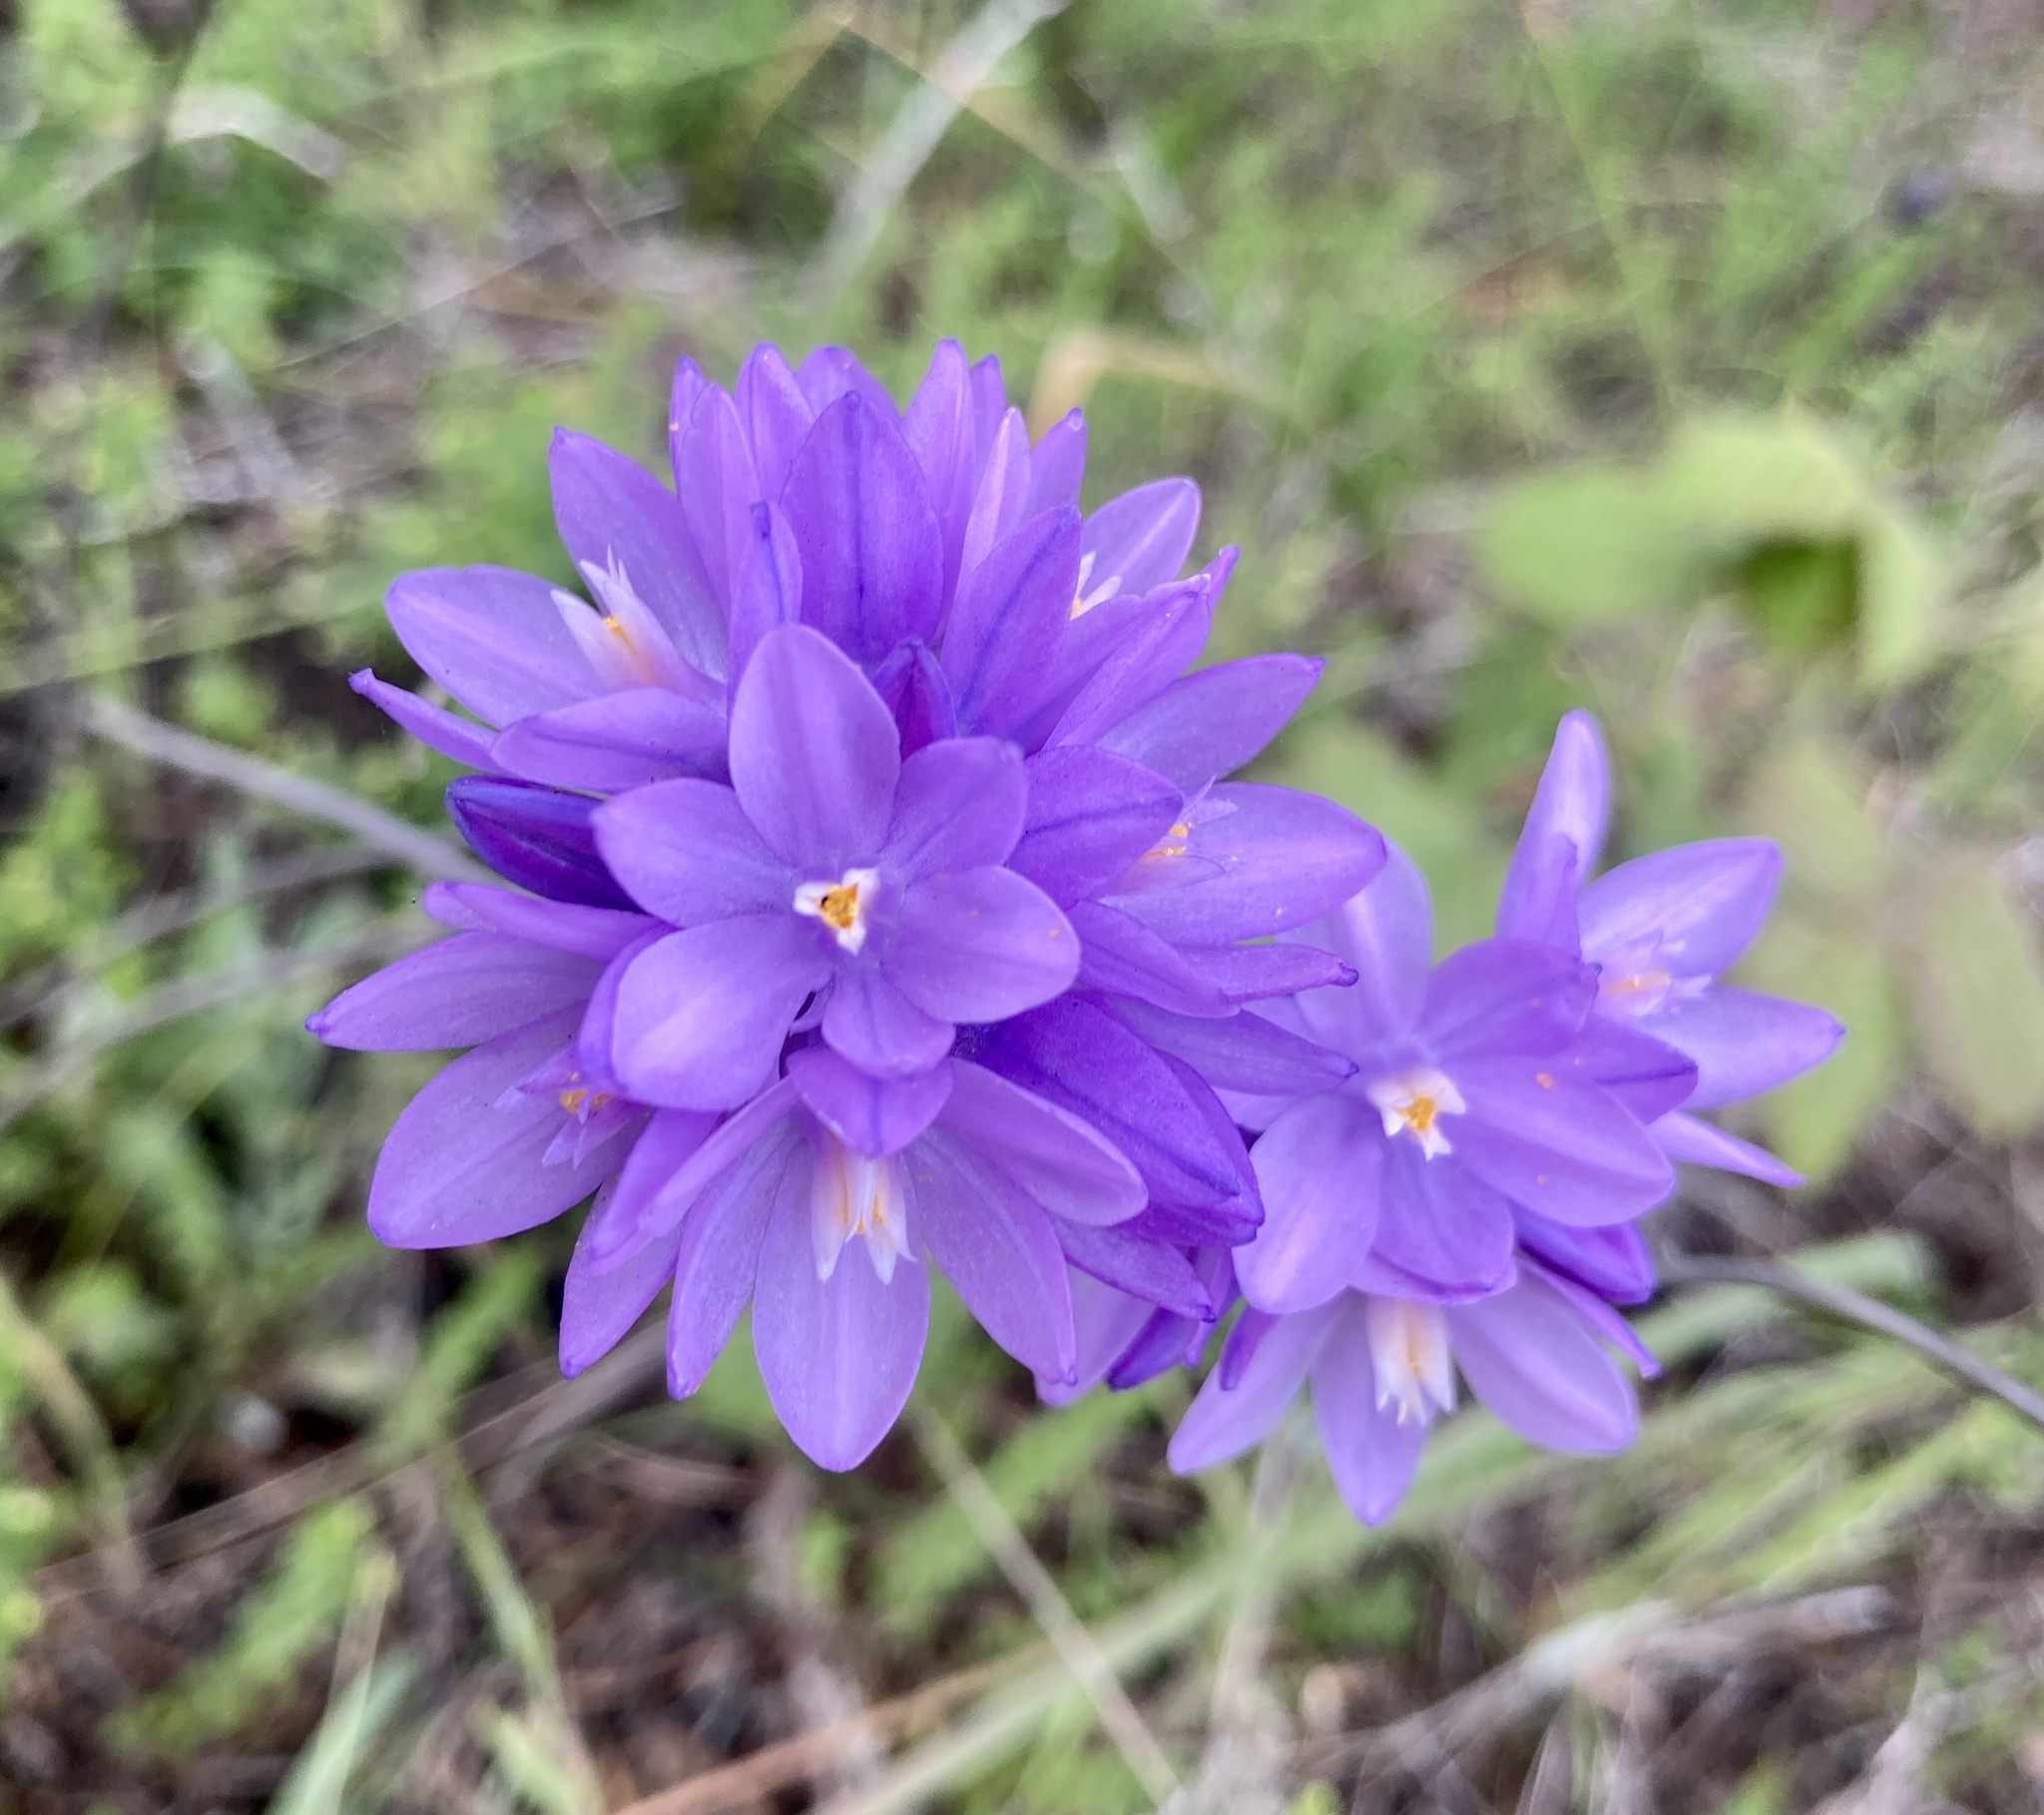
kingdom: Plantae
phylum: Tracheophyta
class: Liliopsida
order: Asparagales
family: Asparagaceae
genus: Dipterostemon
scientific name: Dipterostemon capitatus
